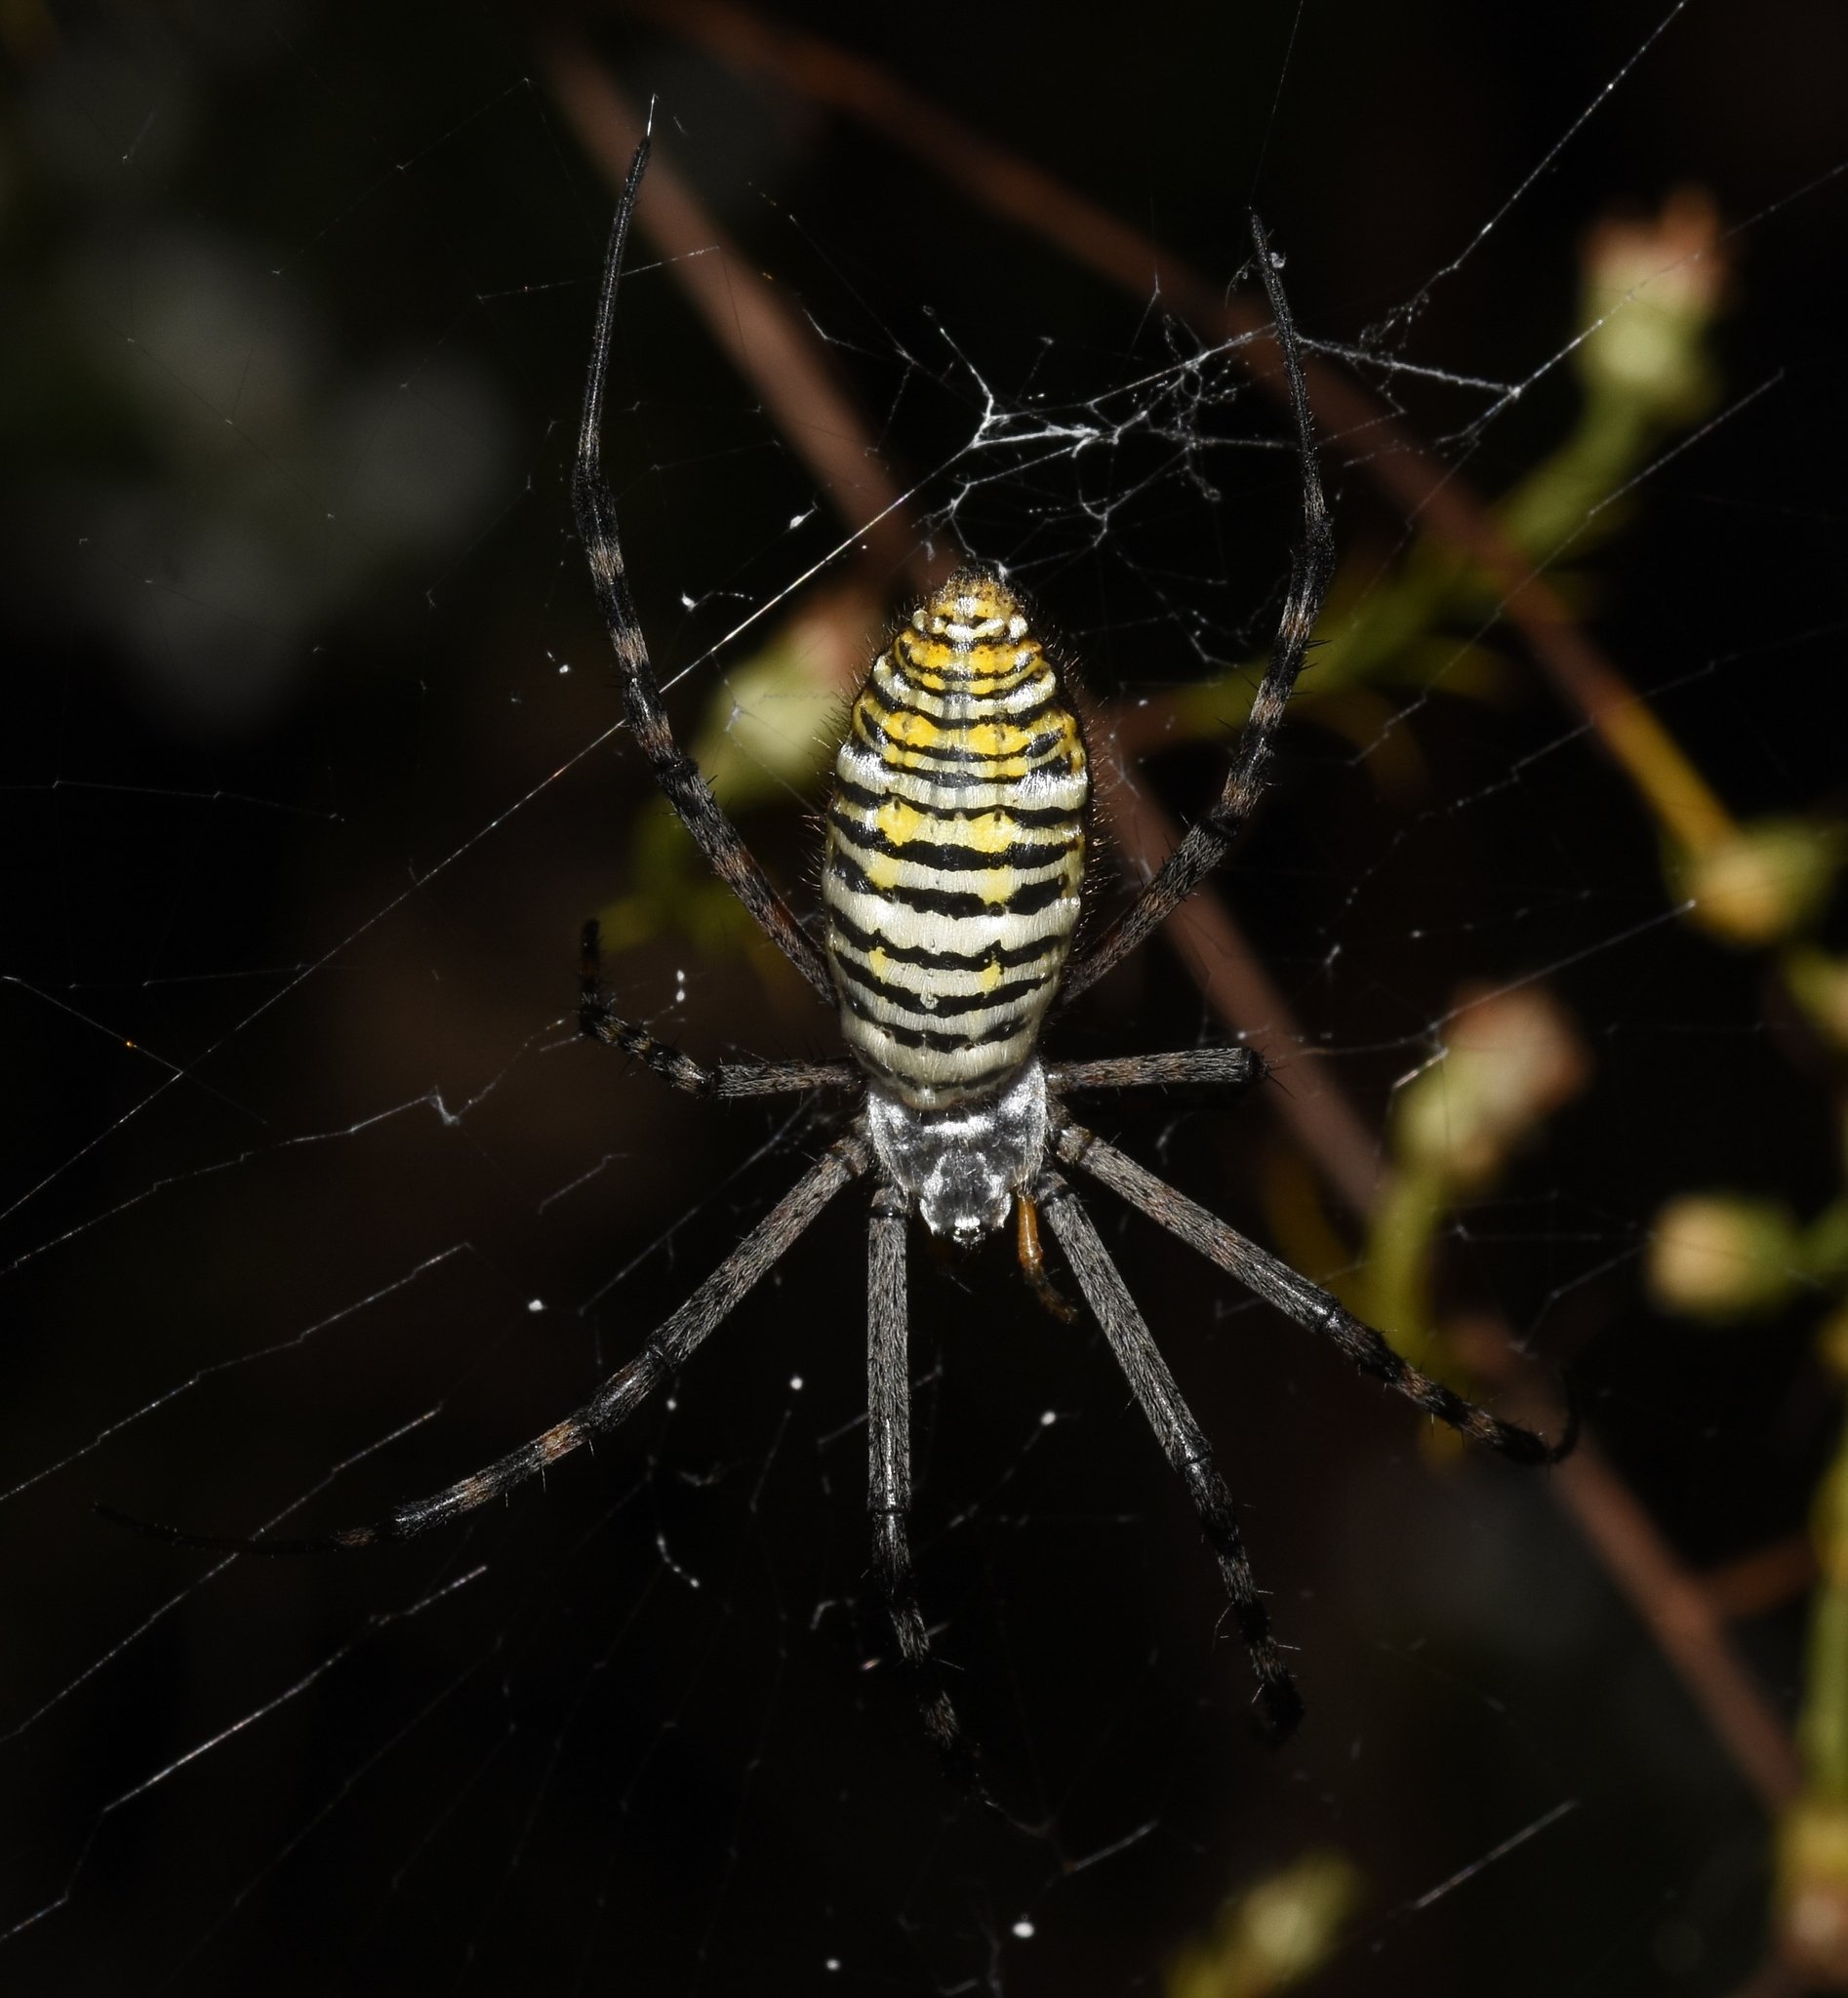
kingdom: Animalia
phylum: Arthropoda
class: Arachnida
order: Araneae
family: Araneidae
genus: Argiope
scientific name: Argiope trifasciata
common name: Banded garden spider
